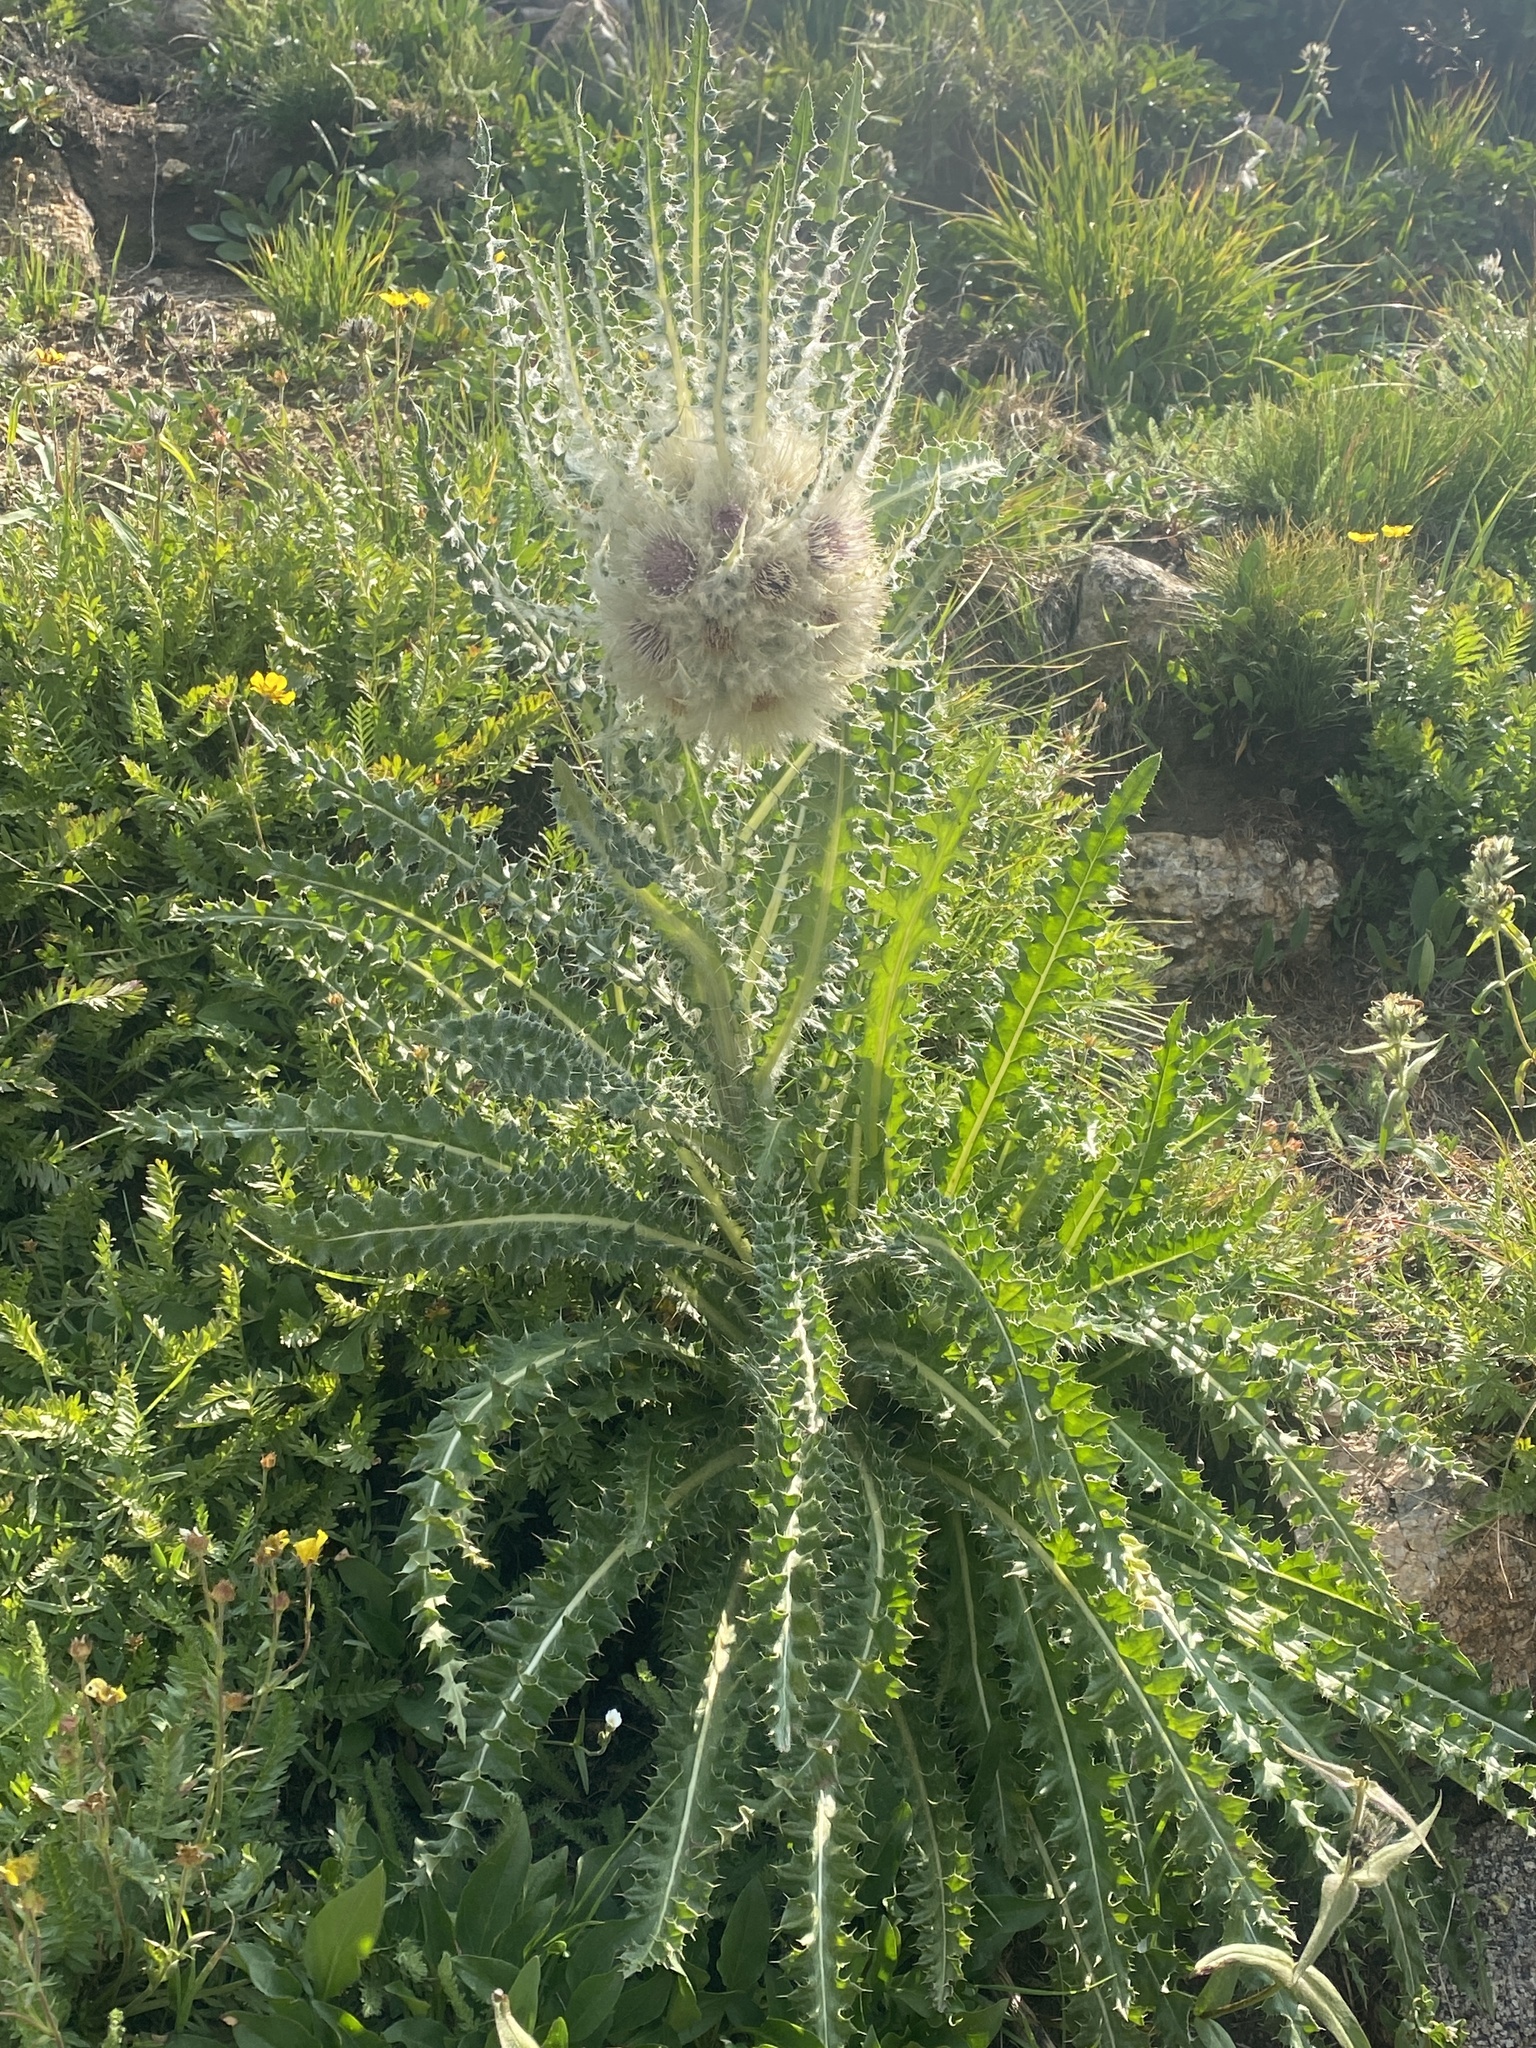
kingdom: Plantae
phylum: Tracheophyta
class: Magnoliopsida
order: Asterales
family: Asteraceae
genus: Cirsium
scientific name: Cirsium scopulorum
